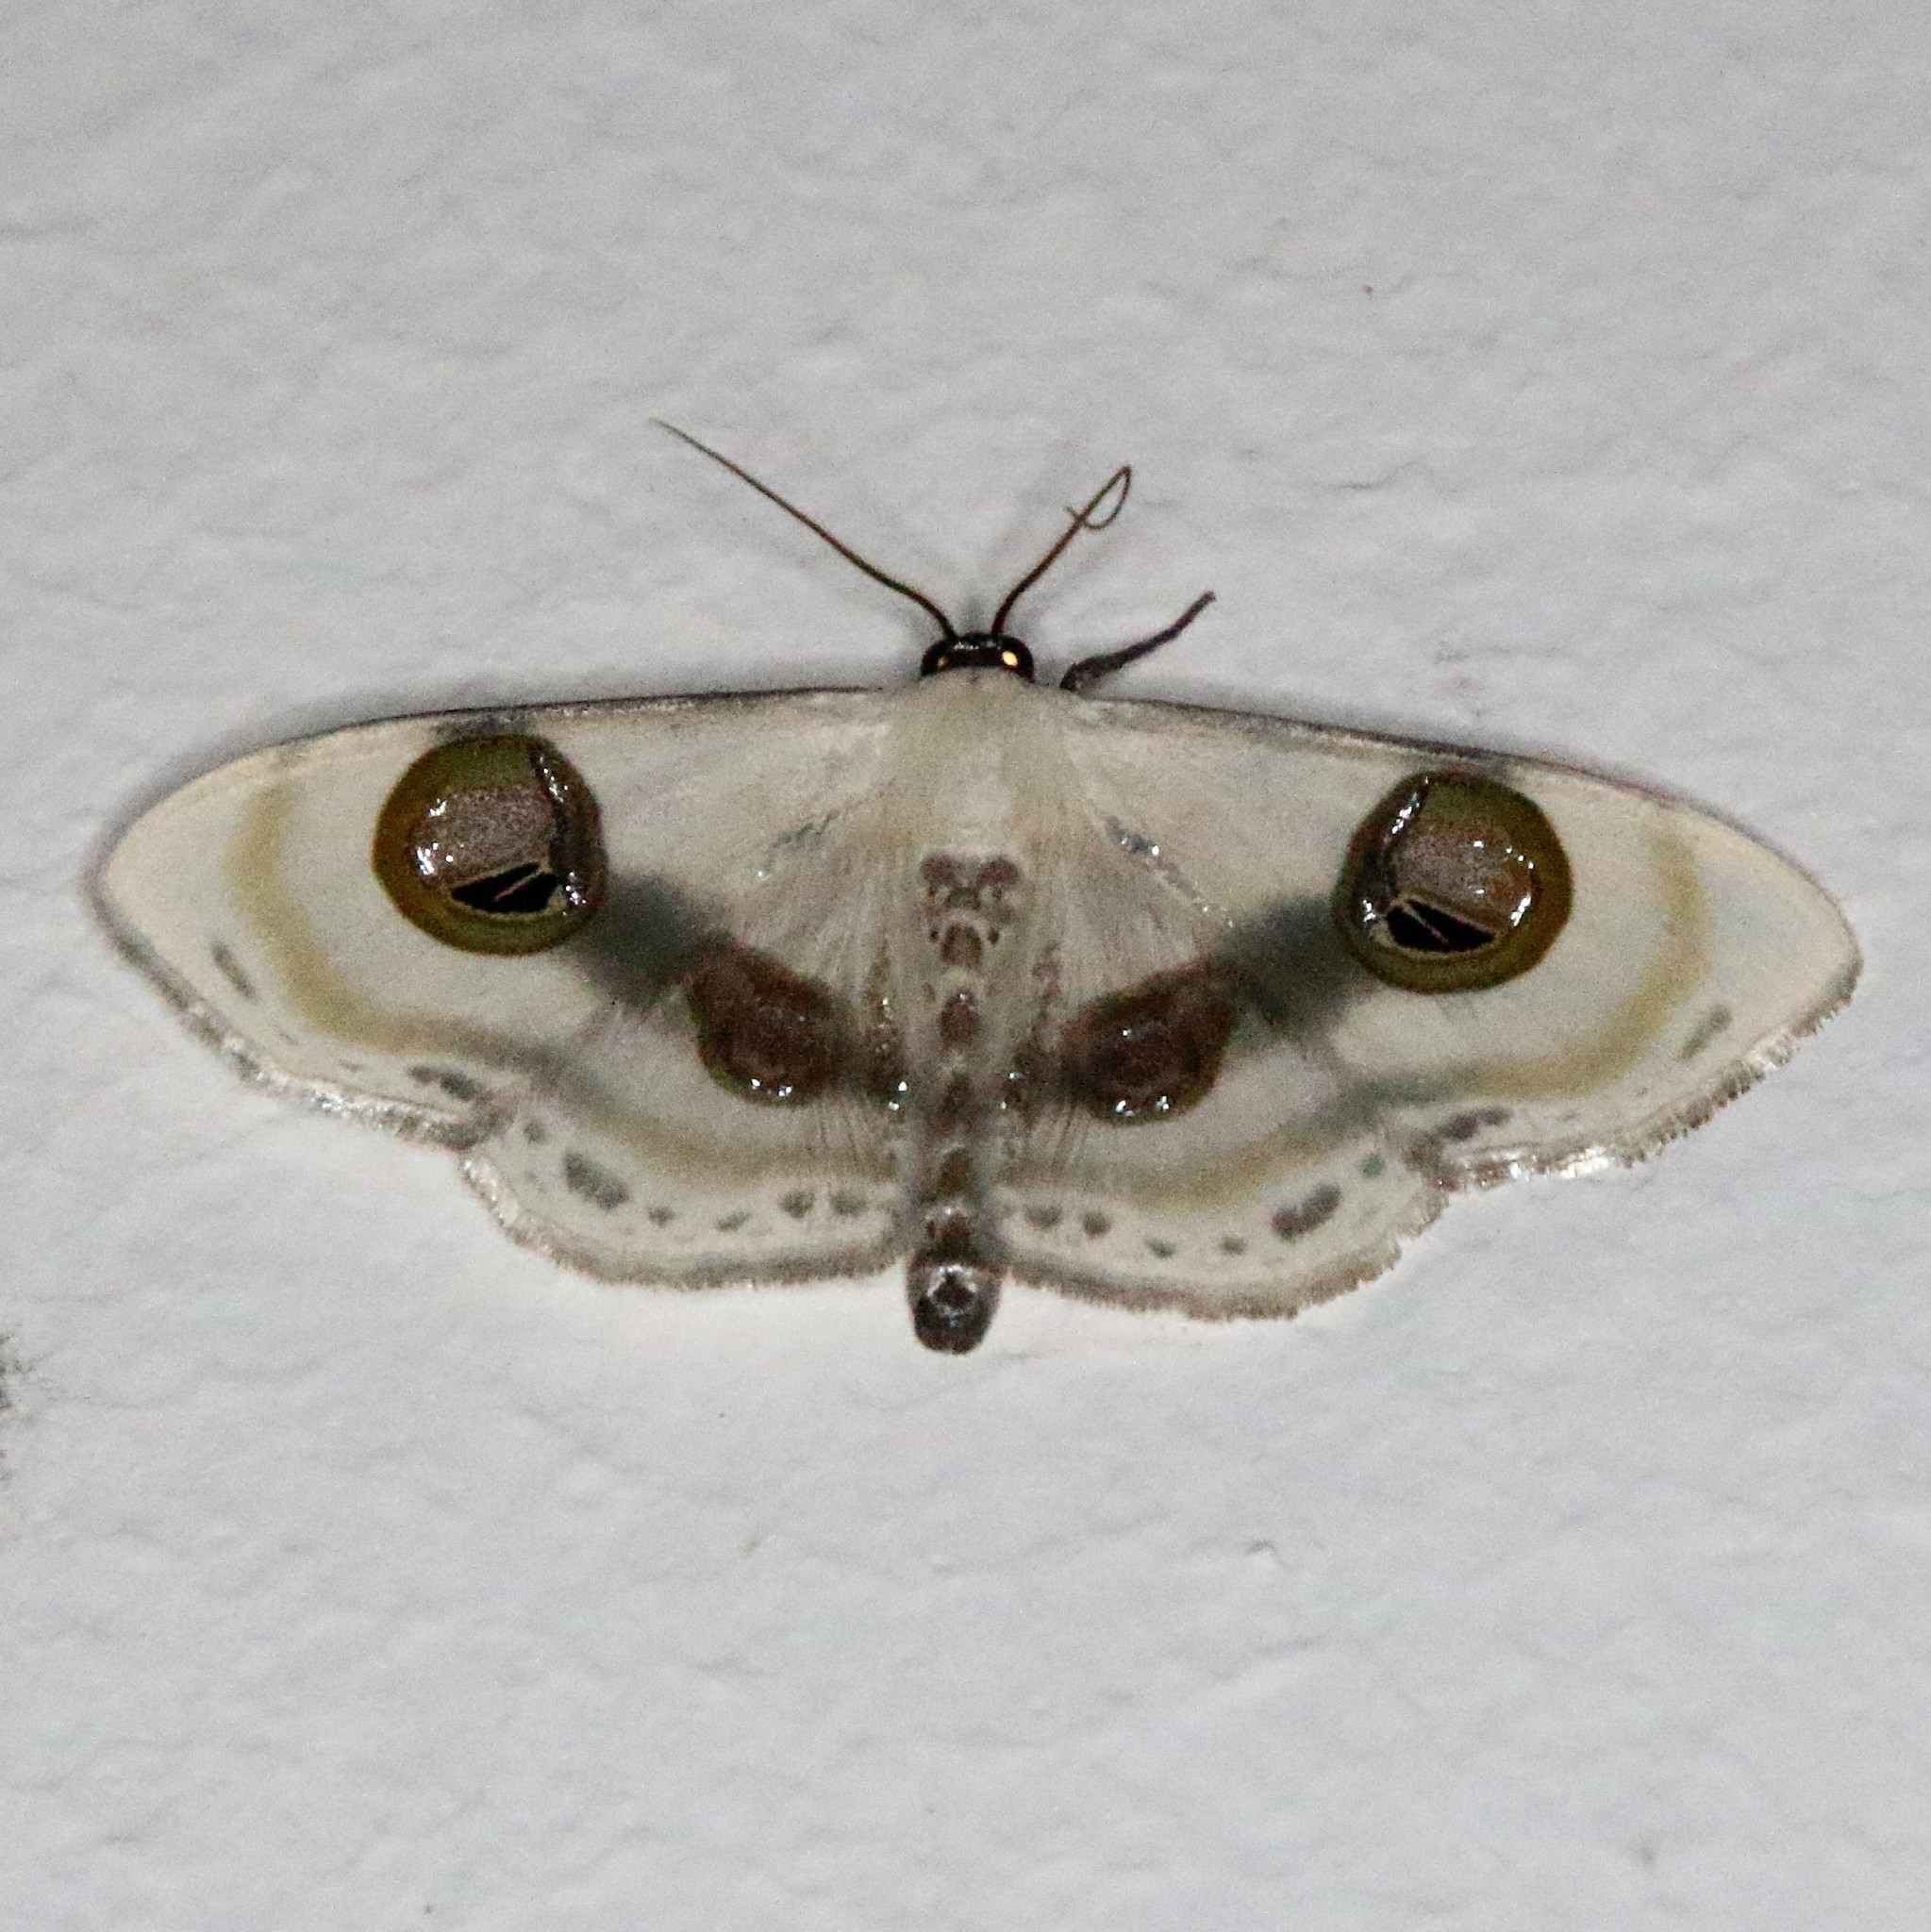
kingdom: Animalia
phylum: Arthropoda
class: Insecta
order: Lepidoptera
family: Geometridae
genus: Problepsis
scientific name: Problepsis conjunctiva
